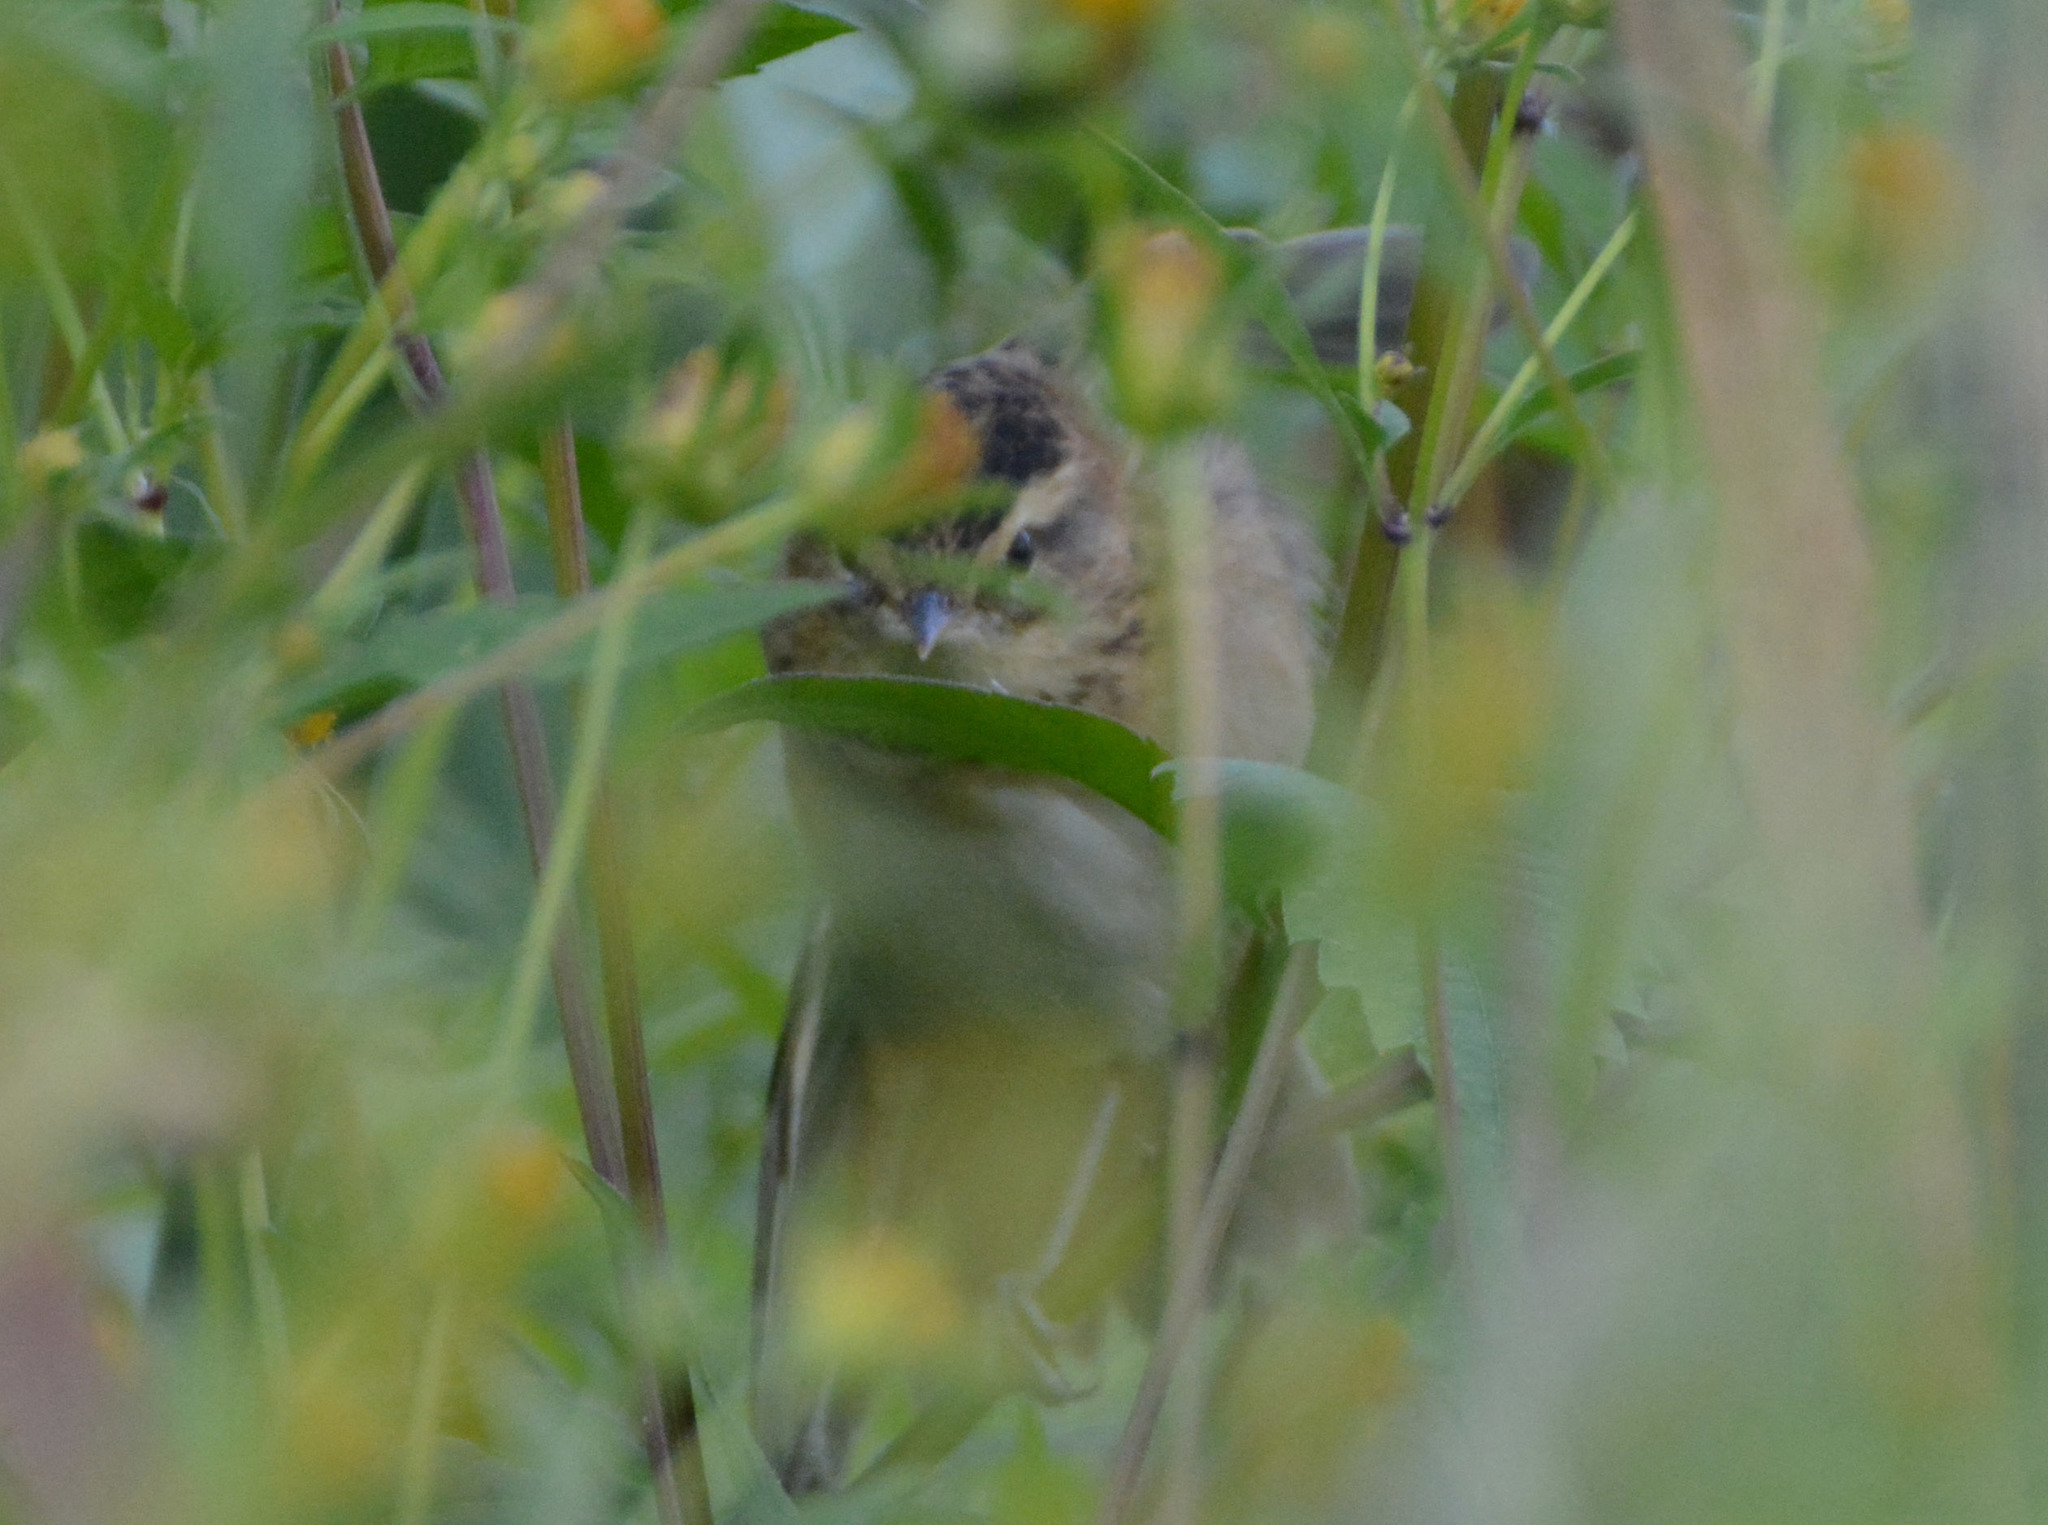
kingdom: Animalia
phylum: Chordata
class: Aves
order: Passeriformes
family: Acrocephalidae
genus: Acrocephalus
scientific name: Acrocephalus schoenobaenus
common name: Sedge warbler
